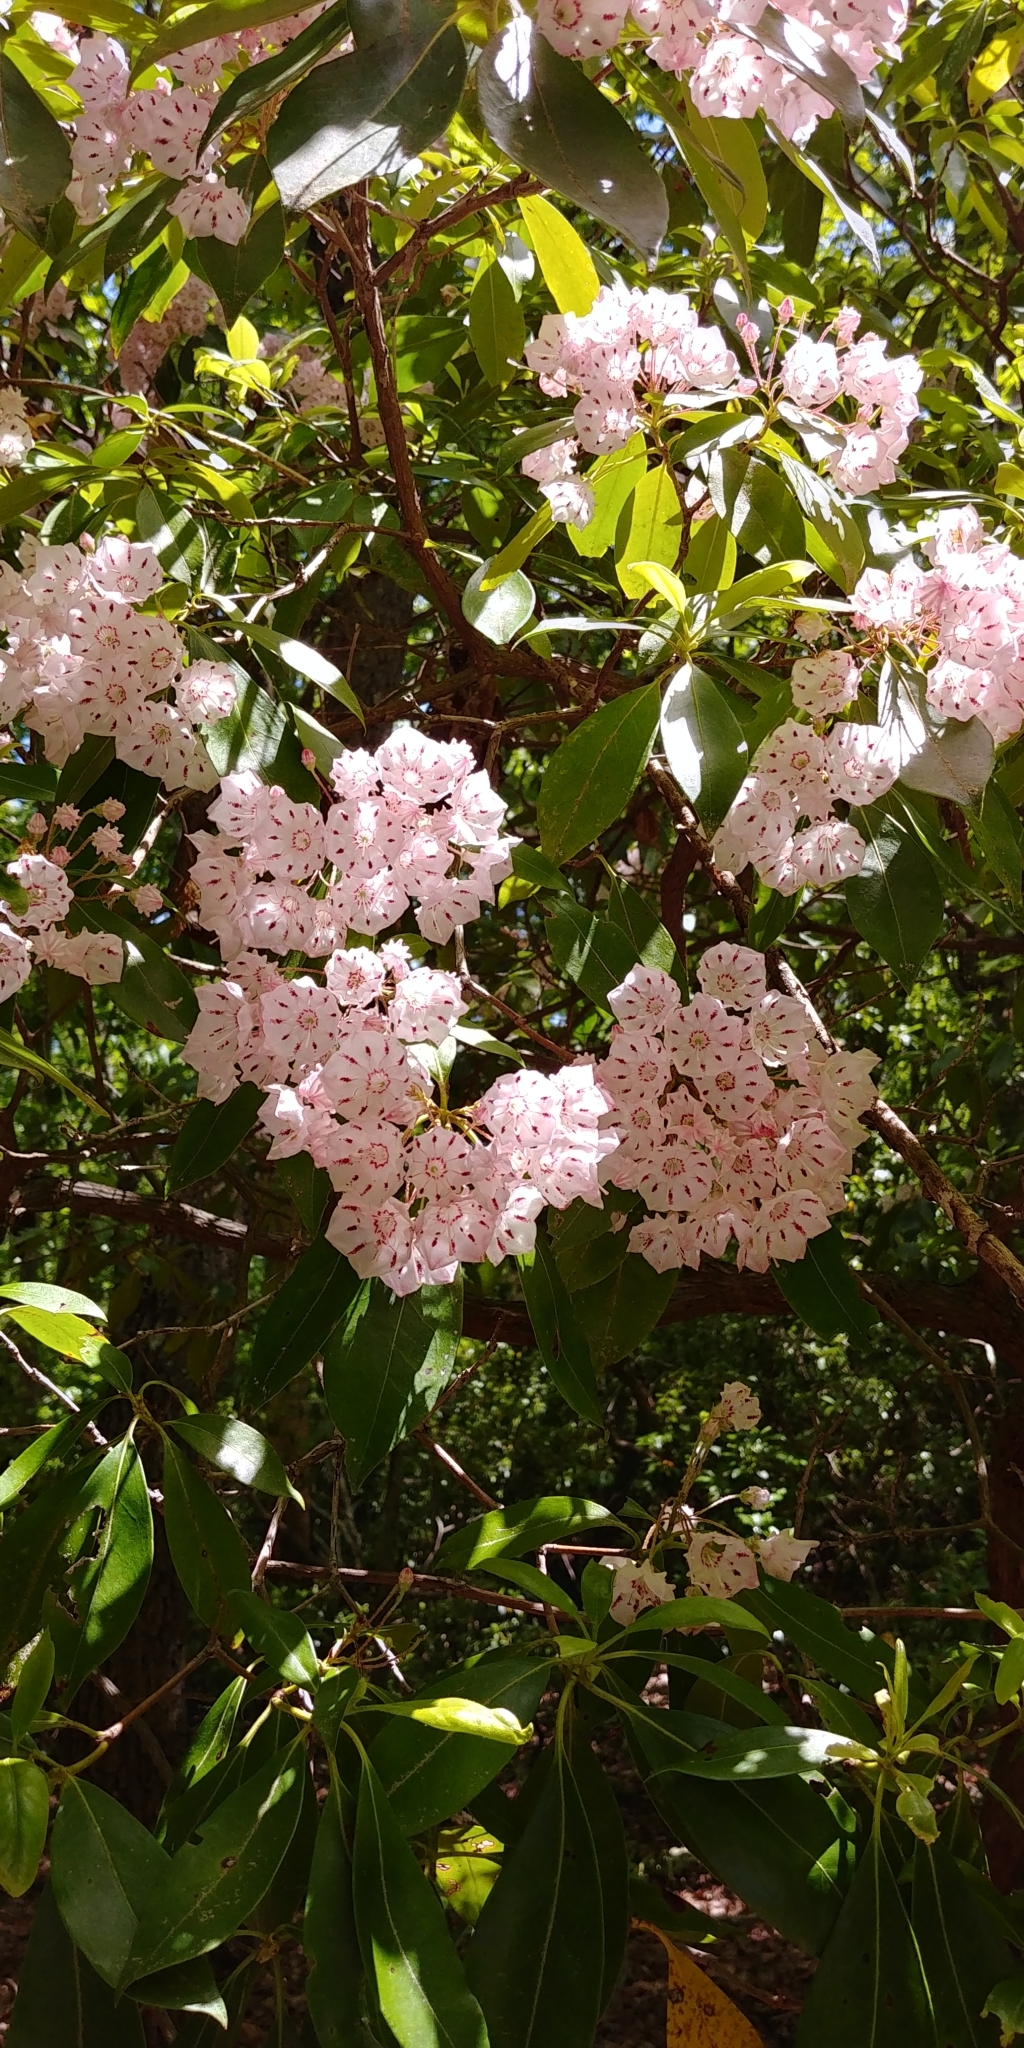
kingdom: Plantae
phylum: Tracheophyta
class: Magnoliopsida
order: Ericales
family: Ericaceae
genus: Kalmia
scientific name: Kalmia latifolia
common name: Mountain-laurel
